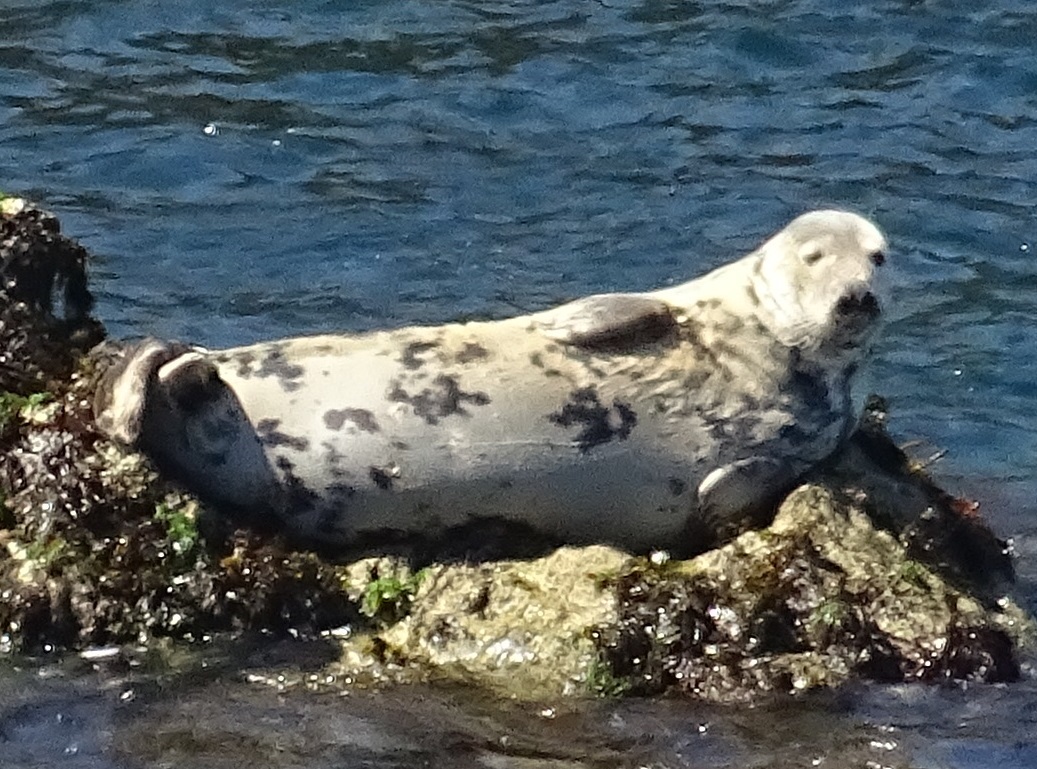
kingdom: Animalia
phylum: Chordata
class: Mammalia
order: Carnivora
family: Phocidae
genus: Halichoerus
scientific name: Halichoerus grypus
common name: Grey seal
